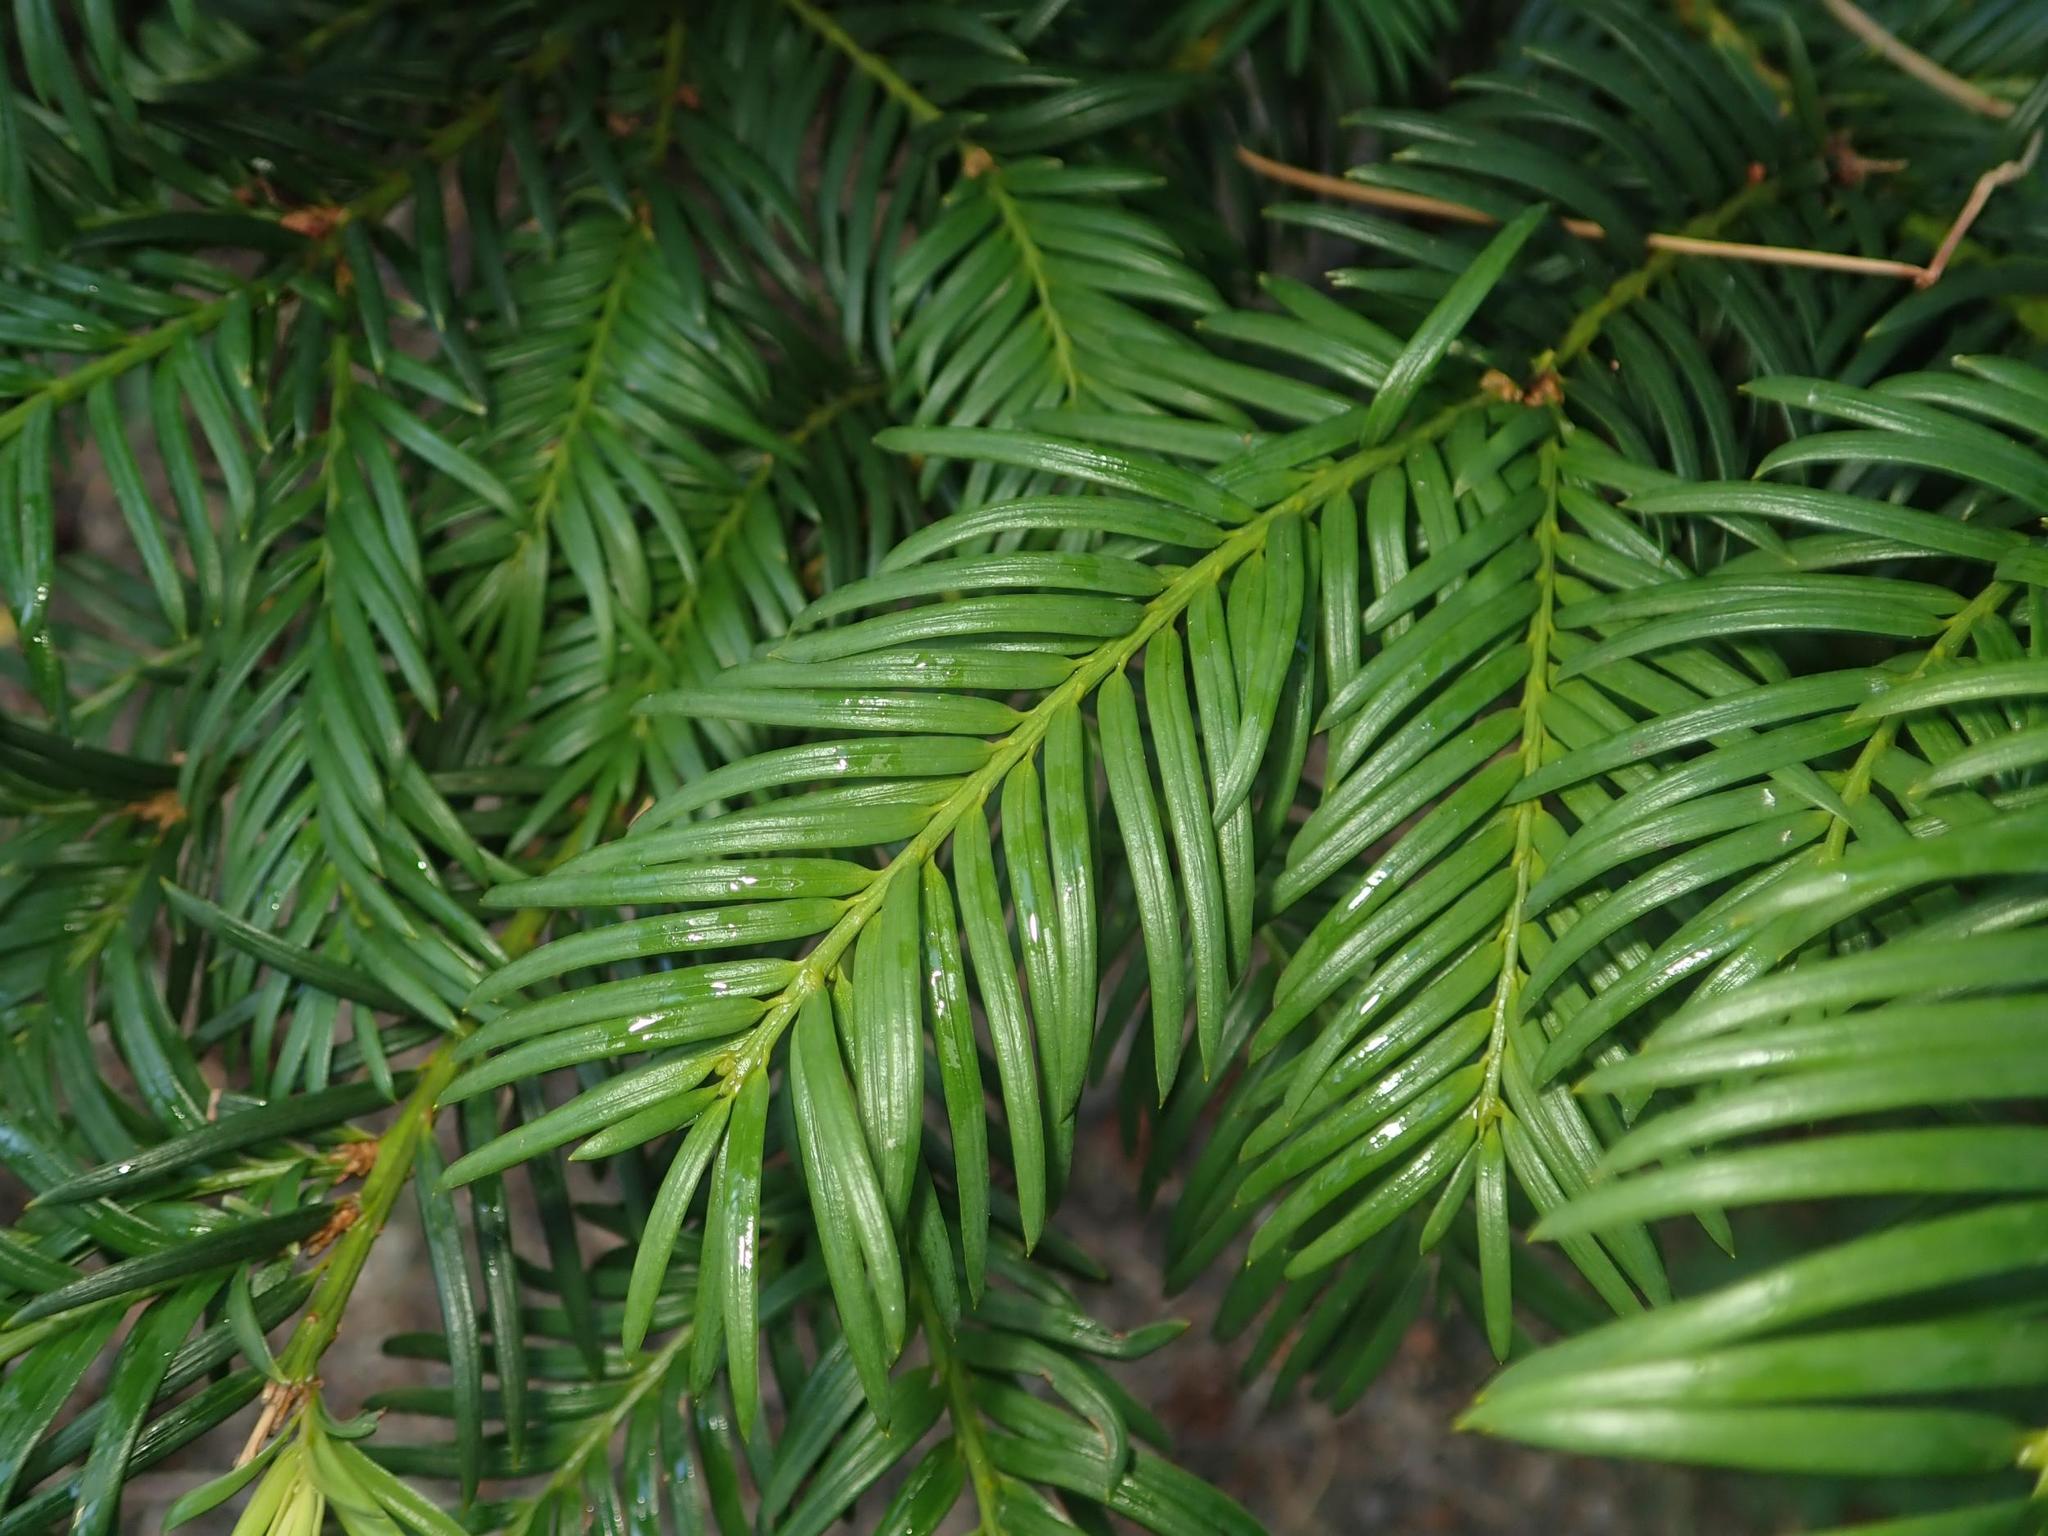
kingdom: Plantae
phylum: Tracheophyta
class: Pinopsida
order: Pinales
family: Taxaceae
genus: Taxus
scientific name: Taxus baccata
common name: Yew
